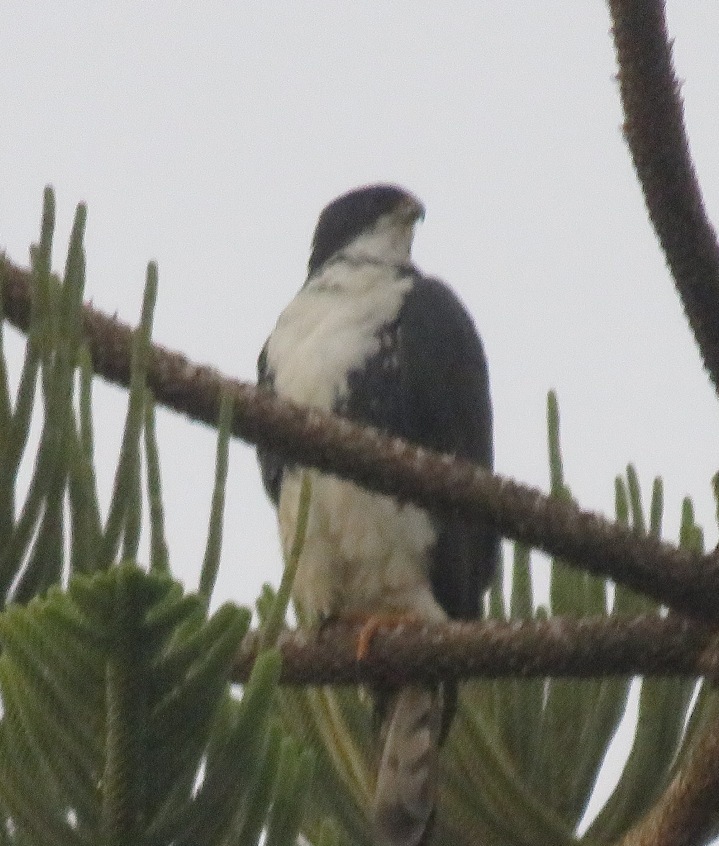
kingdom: Animalia
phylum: Chordata
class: Aves
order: Accipitriformes
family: Accipitridae
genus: Accipiter
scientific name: Accipiter melanoleucus
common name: Black sparrowhawk
